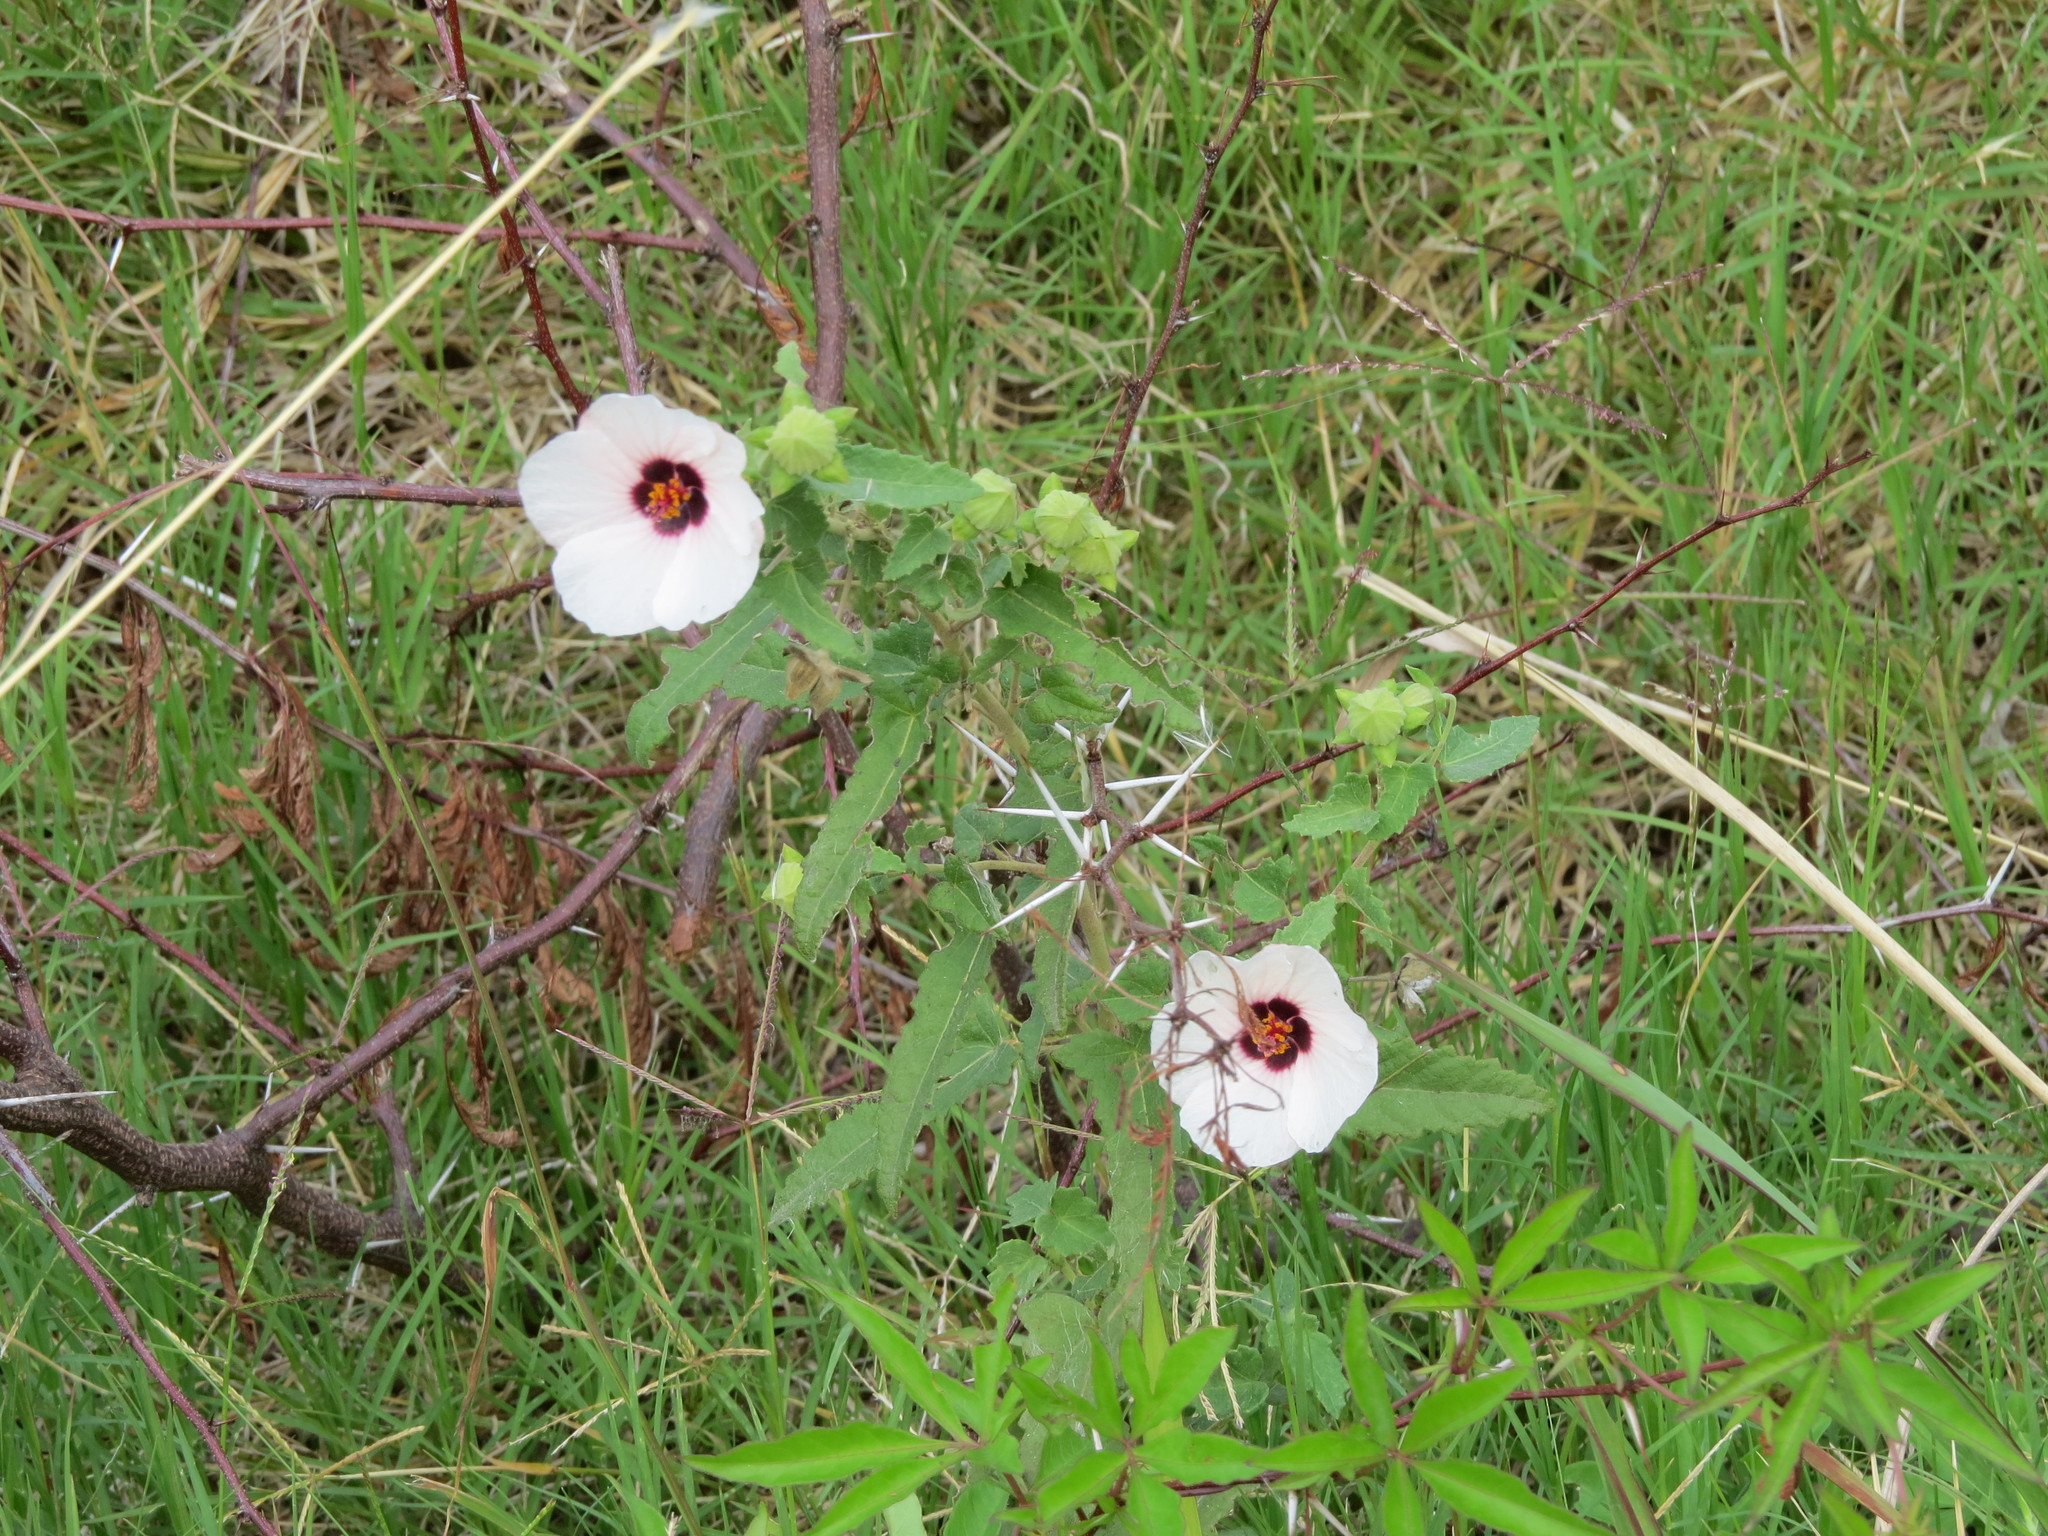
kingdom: Plantae
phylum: Tracheophyta
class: Magnoliopsida
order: Malvales
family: Malvaceae
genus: Pavonia
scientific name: Pavonia hastata
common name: Spearleaf swampmallow
